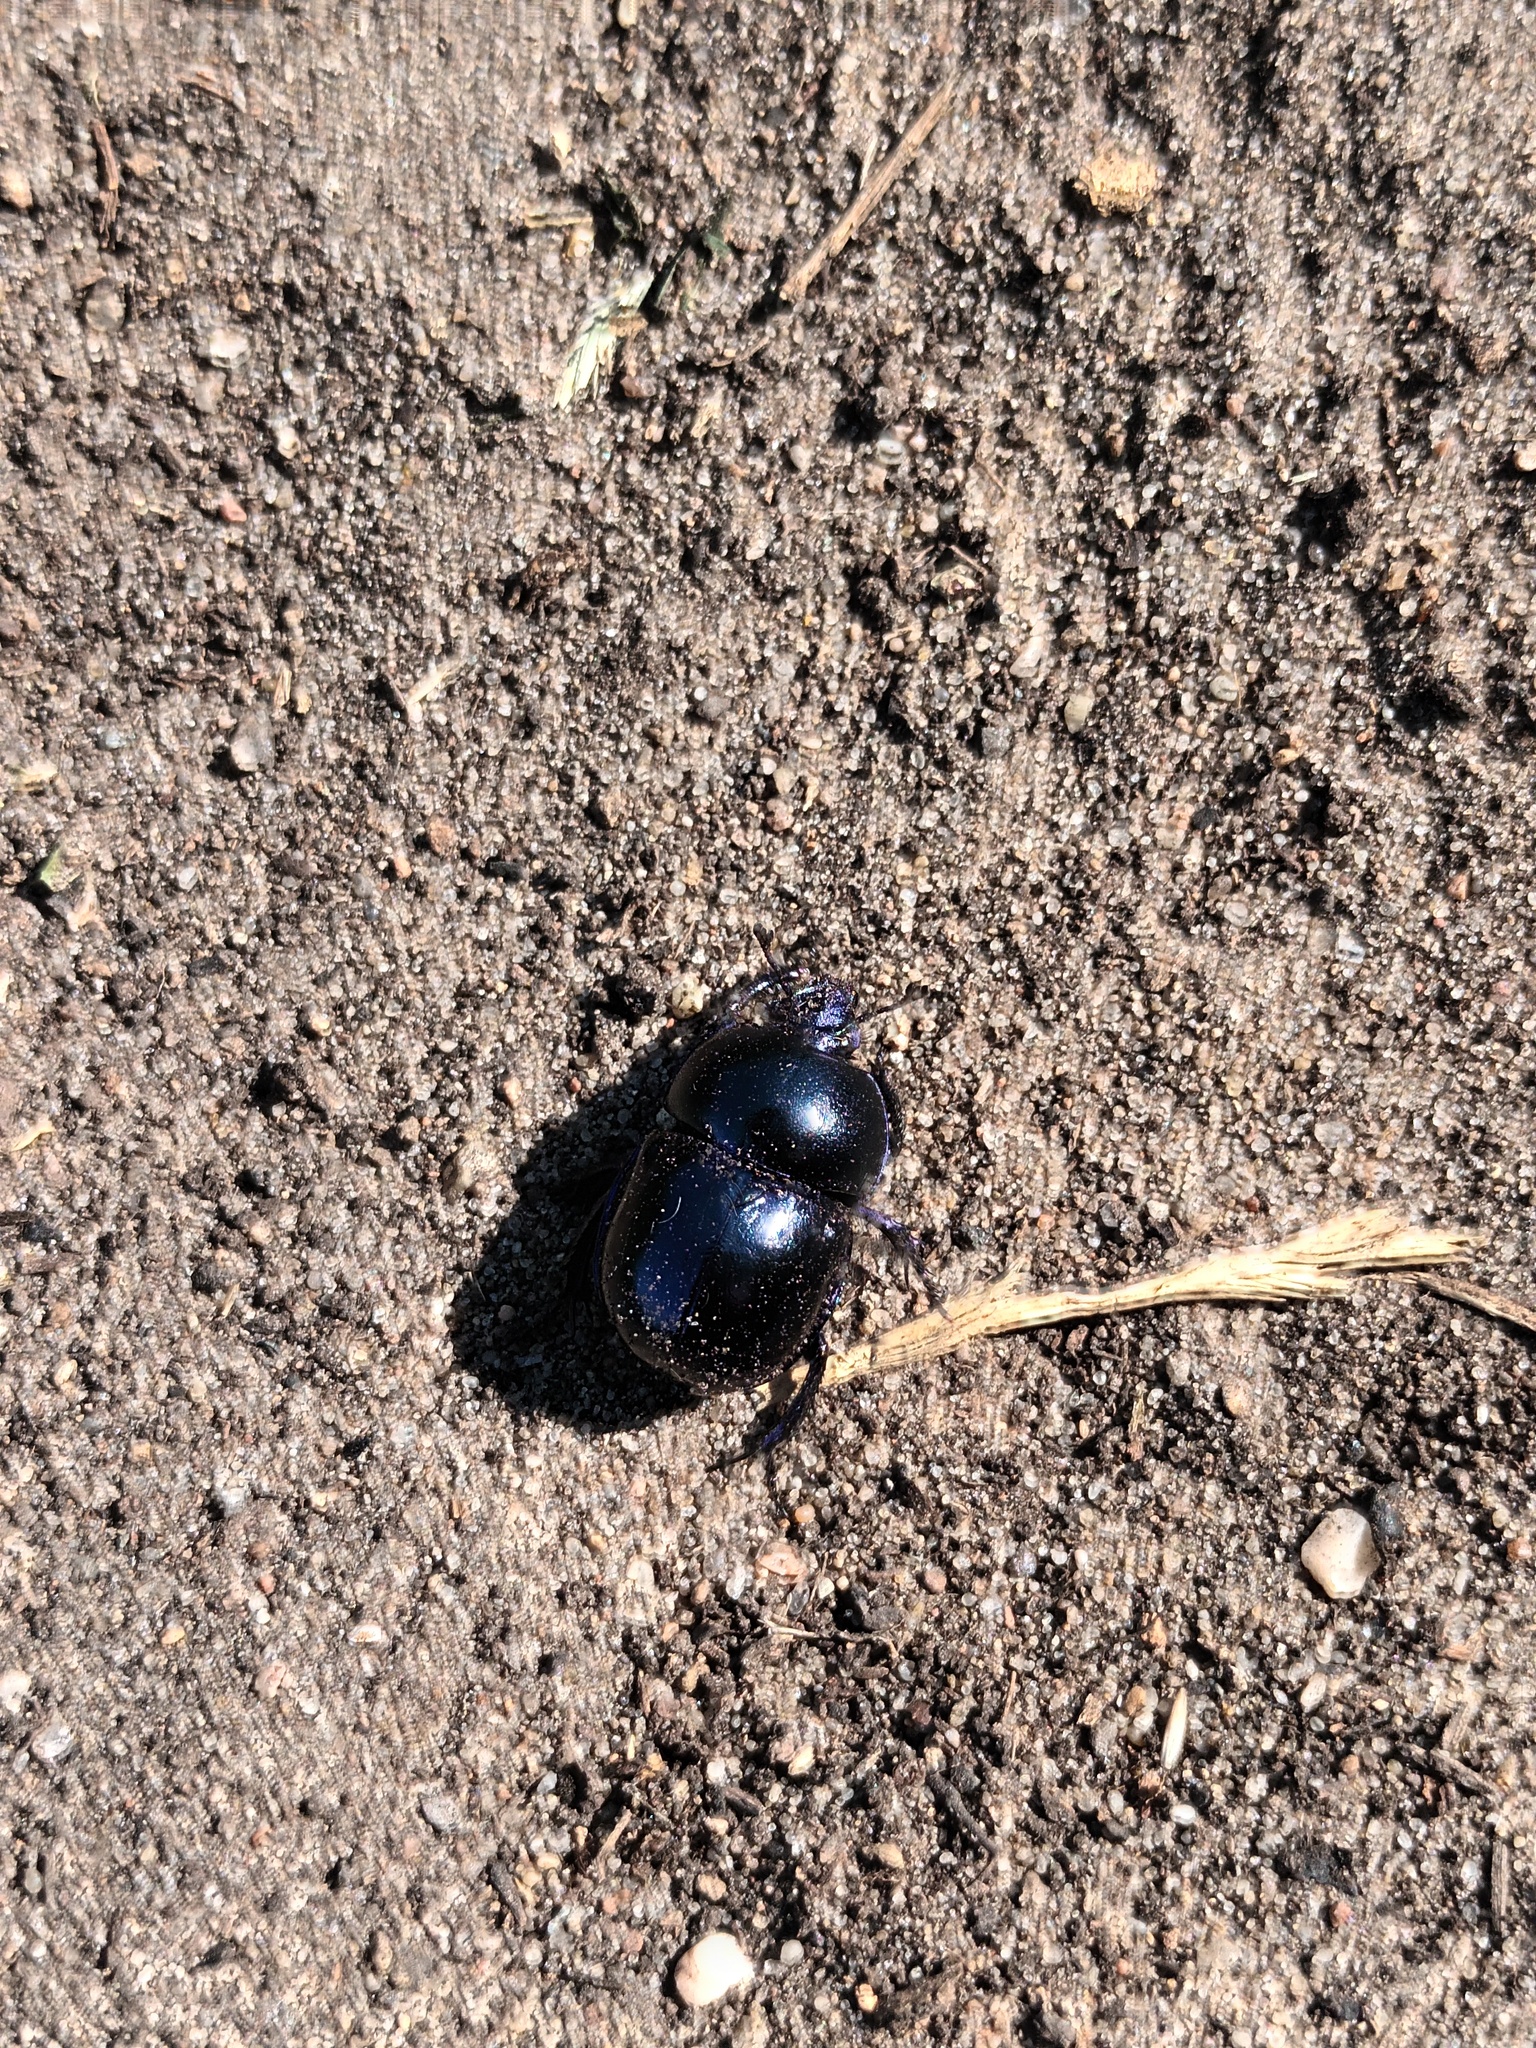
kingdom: Animalia
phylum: Arthropoda
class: Insecta
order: Coleoptera
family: Geotrupidae
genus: Trypocopris
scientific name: Trypocopris vernalis
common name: Spring dumbledor
